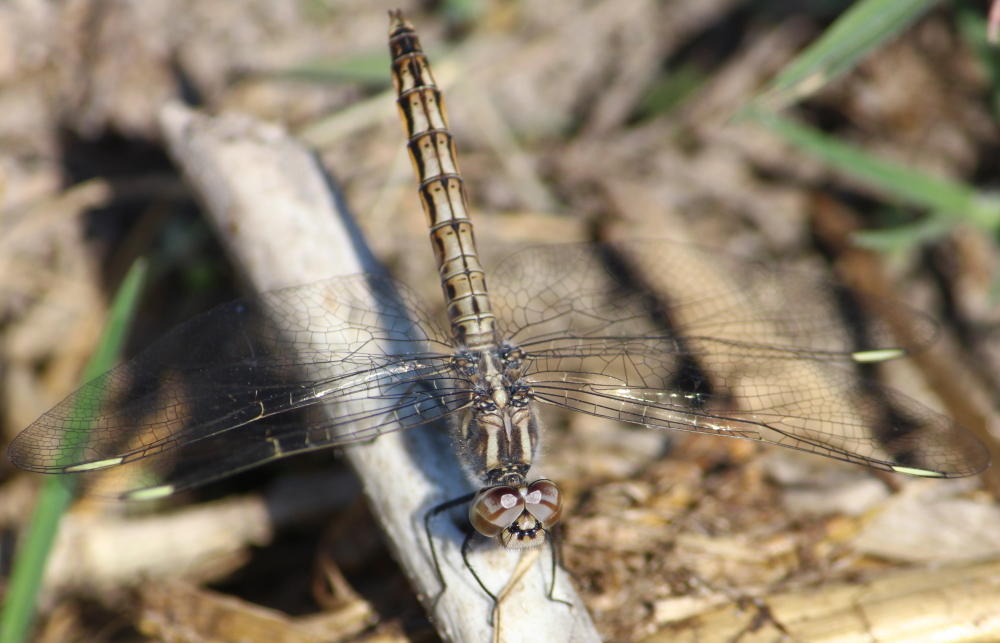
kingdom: Animalia
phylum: Arthropoda
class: Insecta
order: Odonata
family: Libellulidae
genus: Brachythemis
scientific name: Brachythemis leucosticta
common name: Banded groundling
